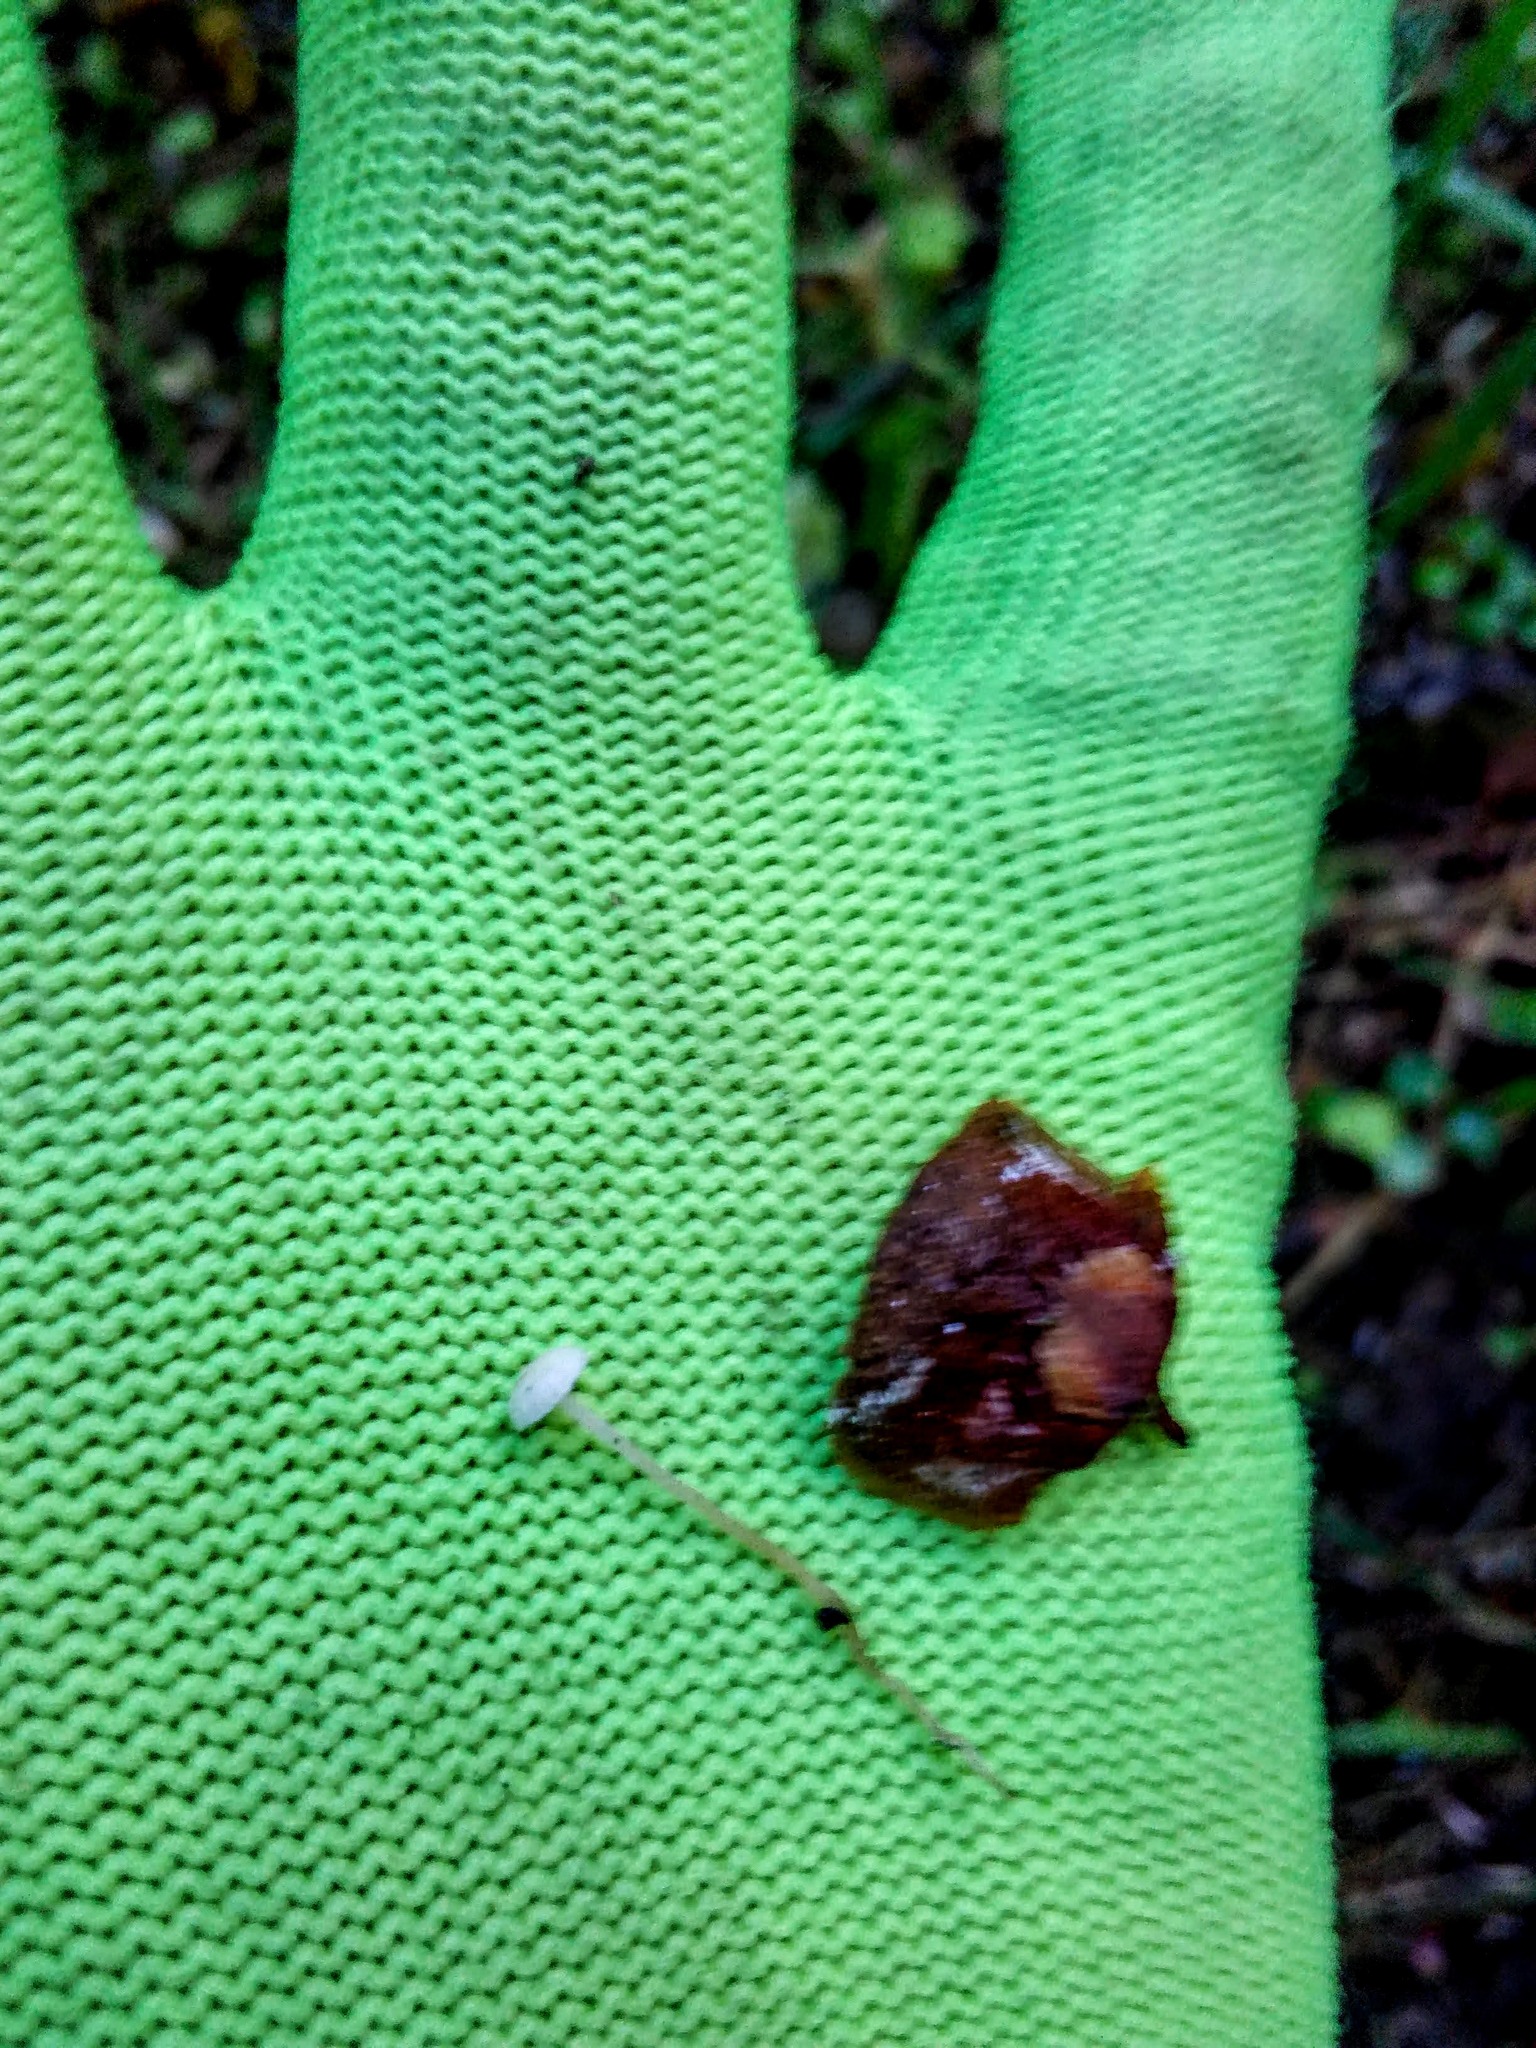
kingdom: Fungi
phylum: Basidiomycota
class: Agaricomycetes
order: Agaricales
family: Tricholomataceae
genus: Collybia
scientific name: Collybia cirrhata
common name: Piggyback shanklet
